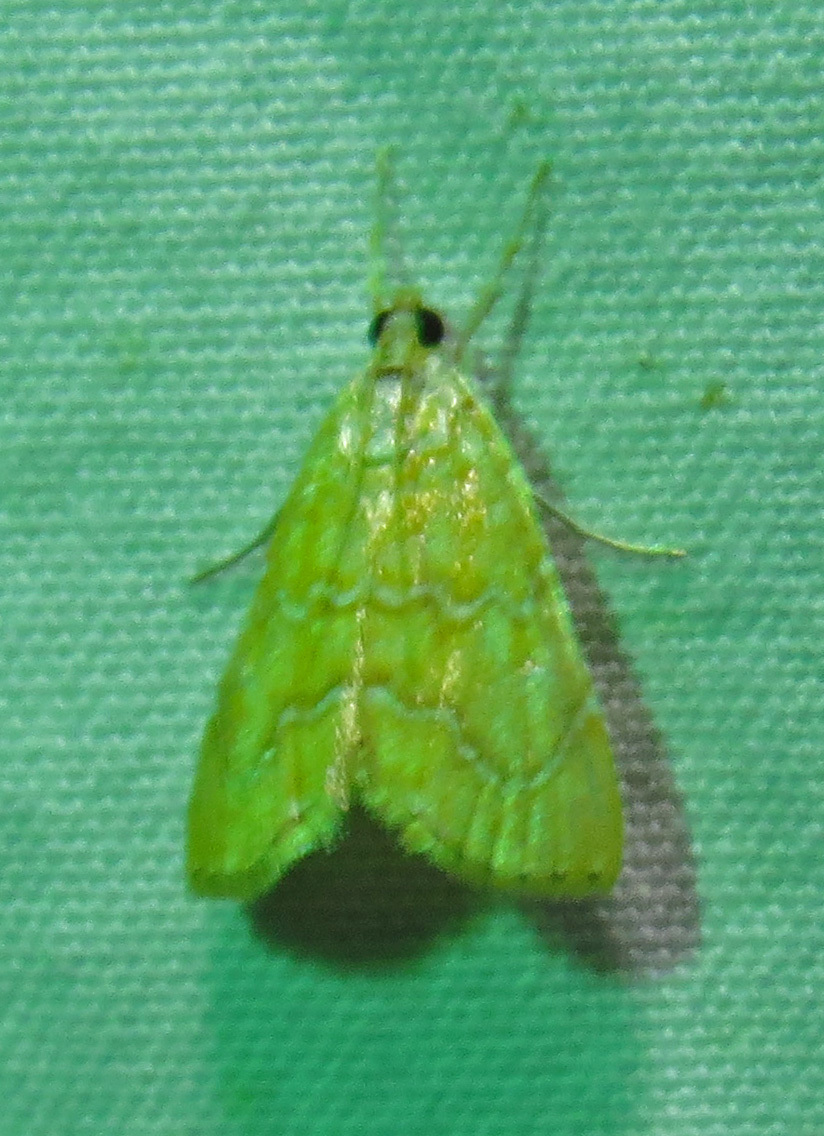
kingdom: Animalia
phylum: Arthropoda
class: Insecta
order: Lepidoptera
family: Crambidae
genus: Glaphyria
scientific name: Glaphyria sesquistrialis
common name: White-roped glaphyria
